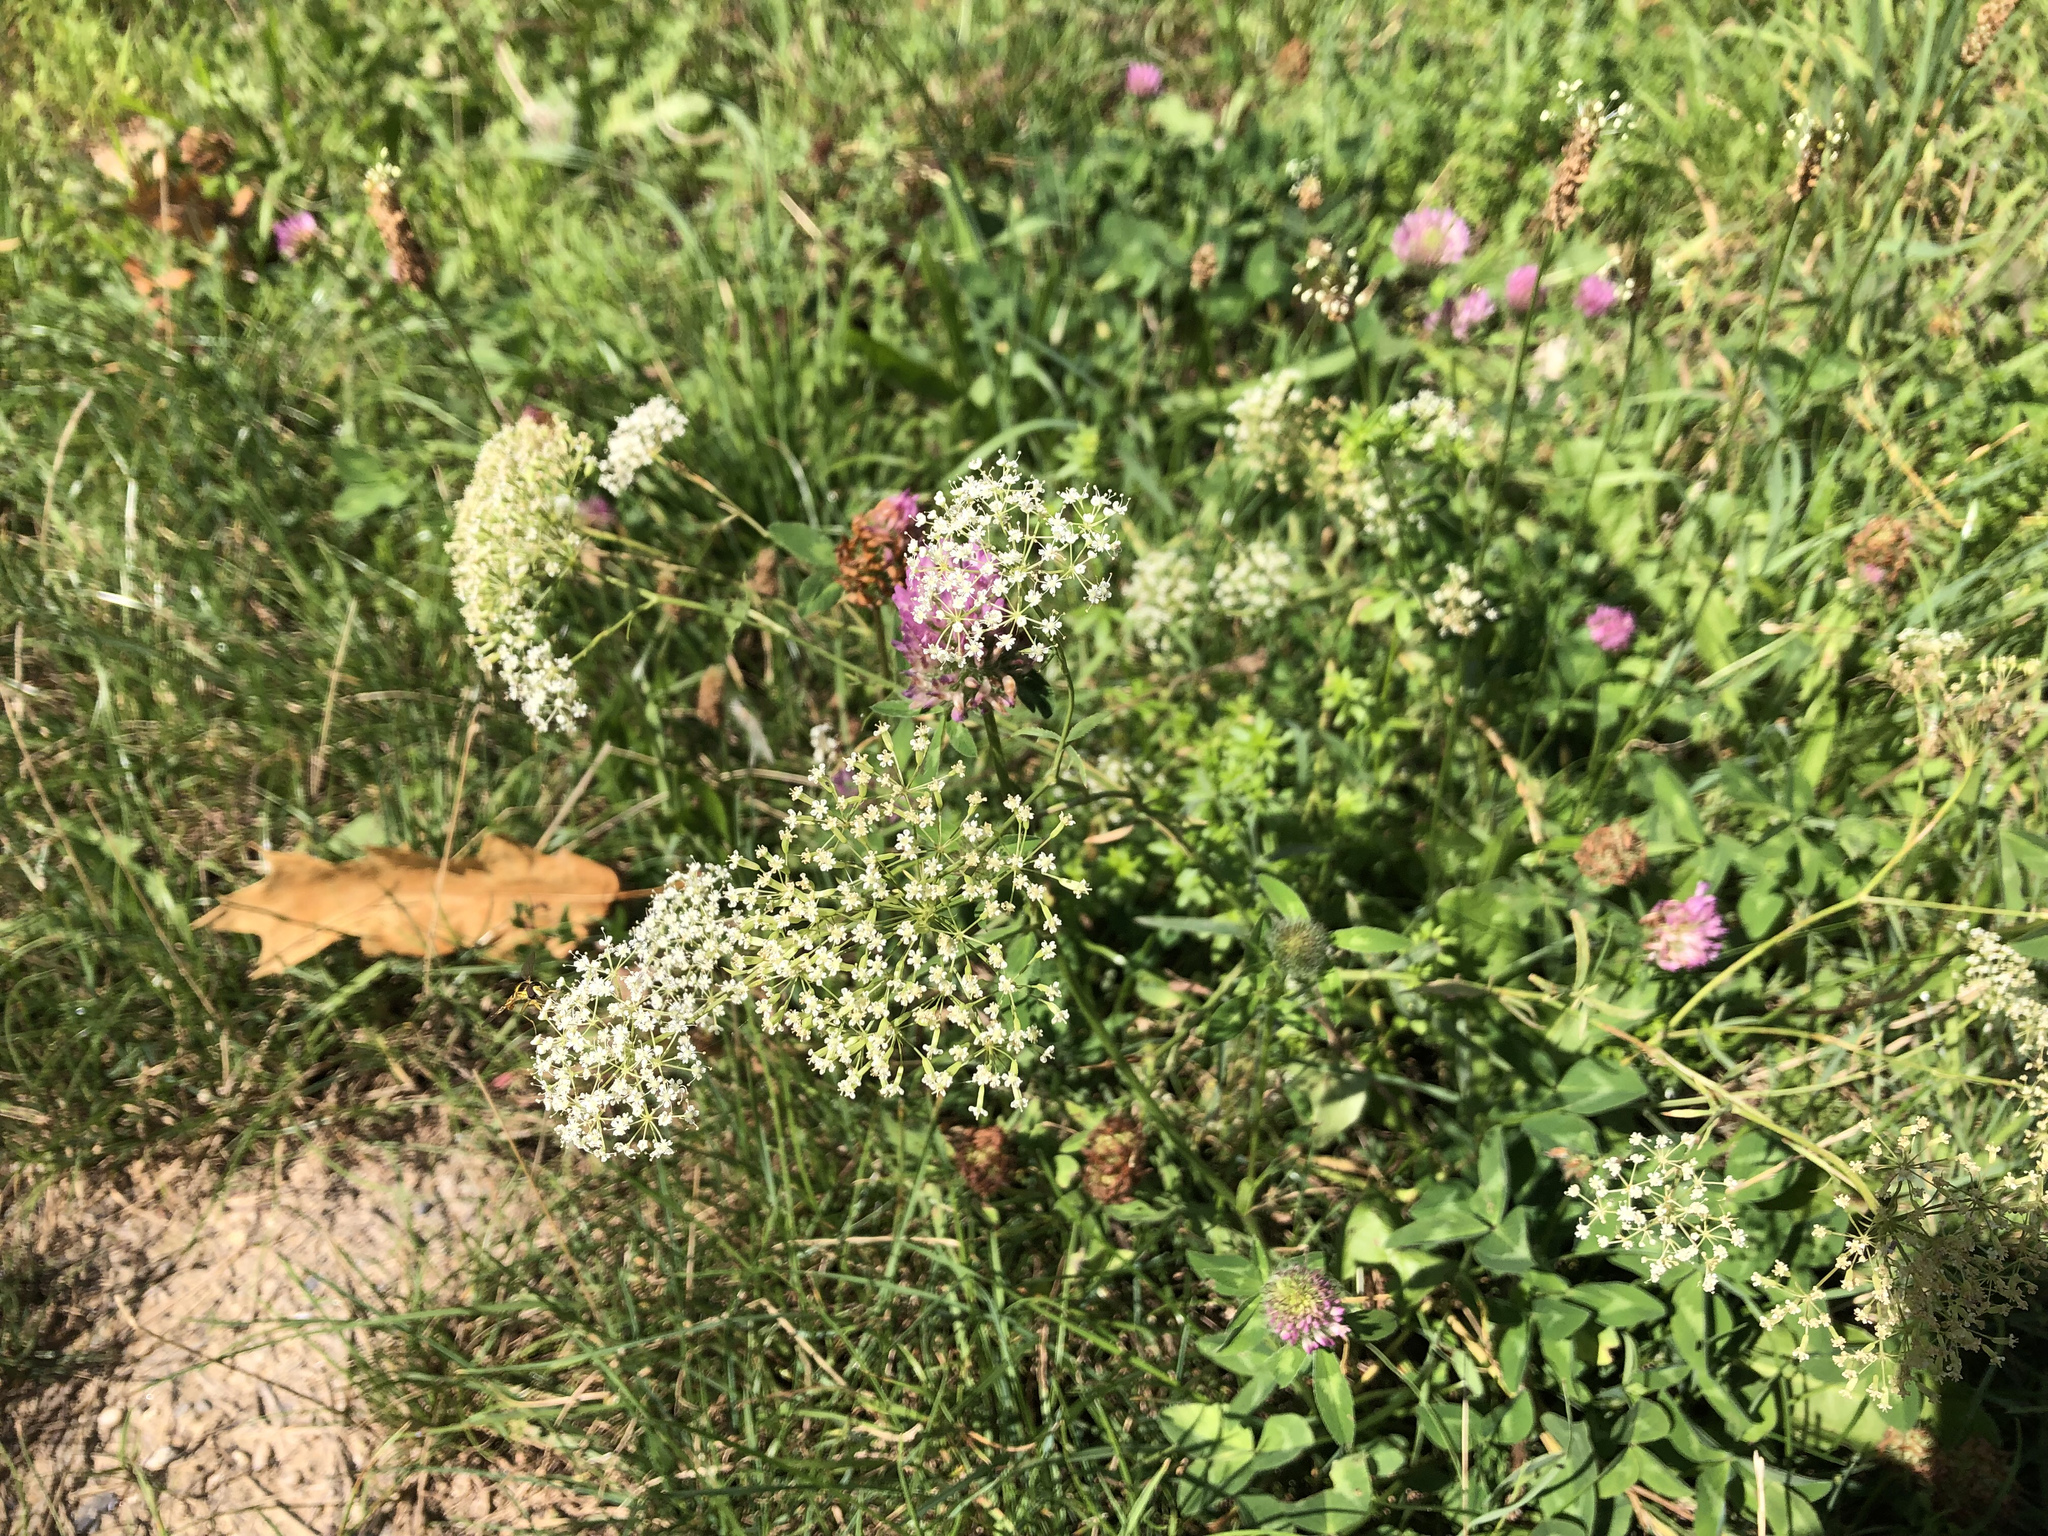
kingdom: Plantae
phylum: Tracheophyta
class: Magnoliopsida
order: Apiales
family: Apiaceae
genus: Falcaria
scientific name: Falcaria vulgaris
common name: Longleaf
